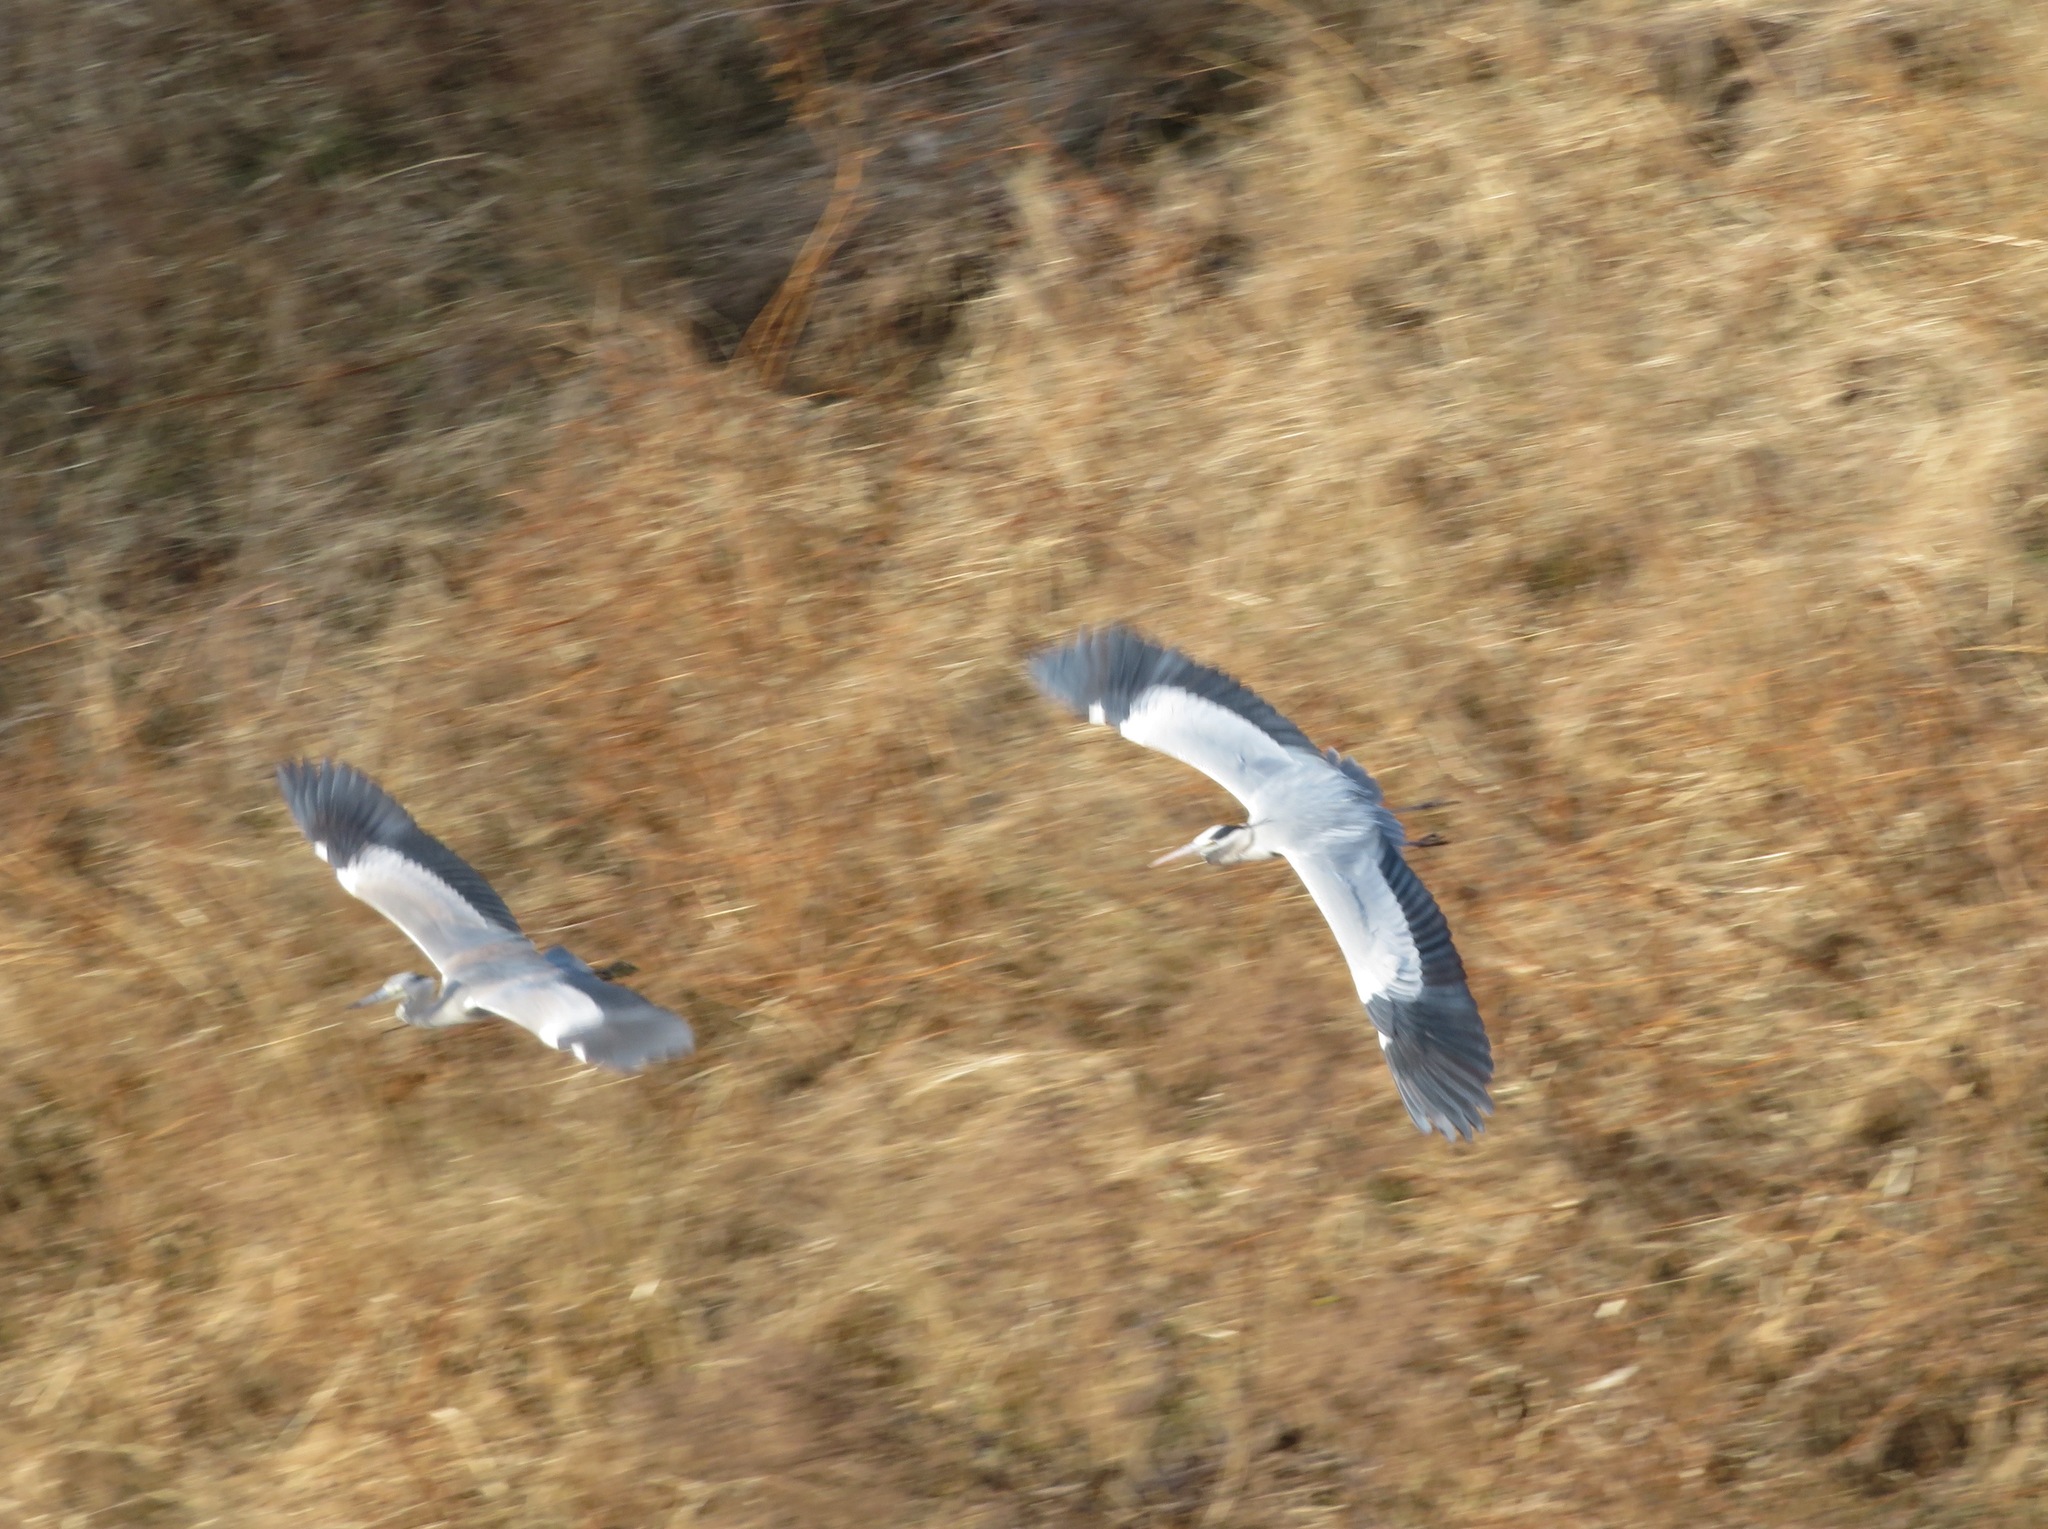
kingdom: Animalia
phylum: Chordata
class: Aves
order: Pelecaniformes
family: Ardeidae
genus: Ardea
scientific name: Ardea cinerea
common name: Grey heron
